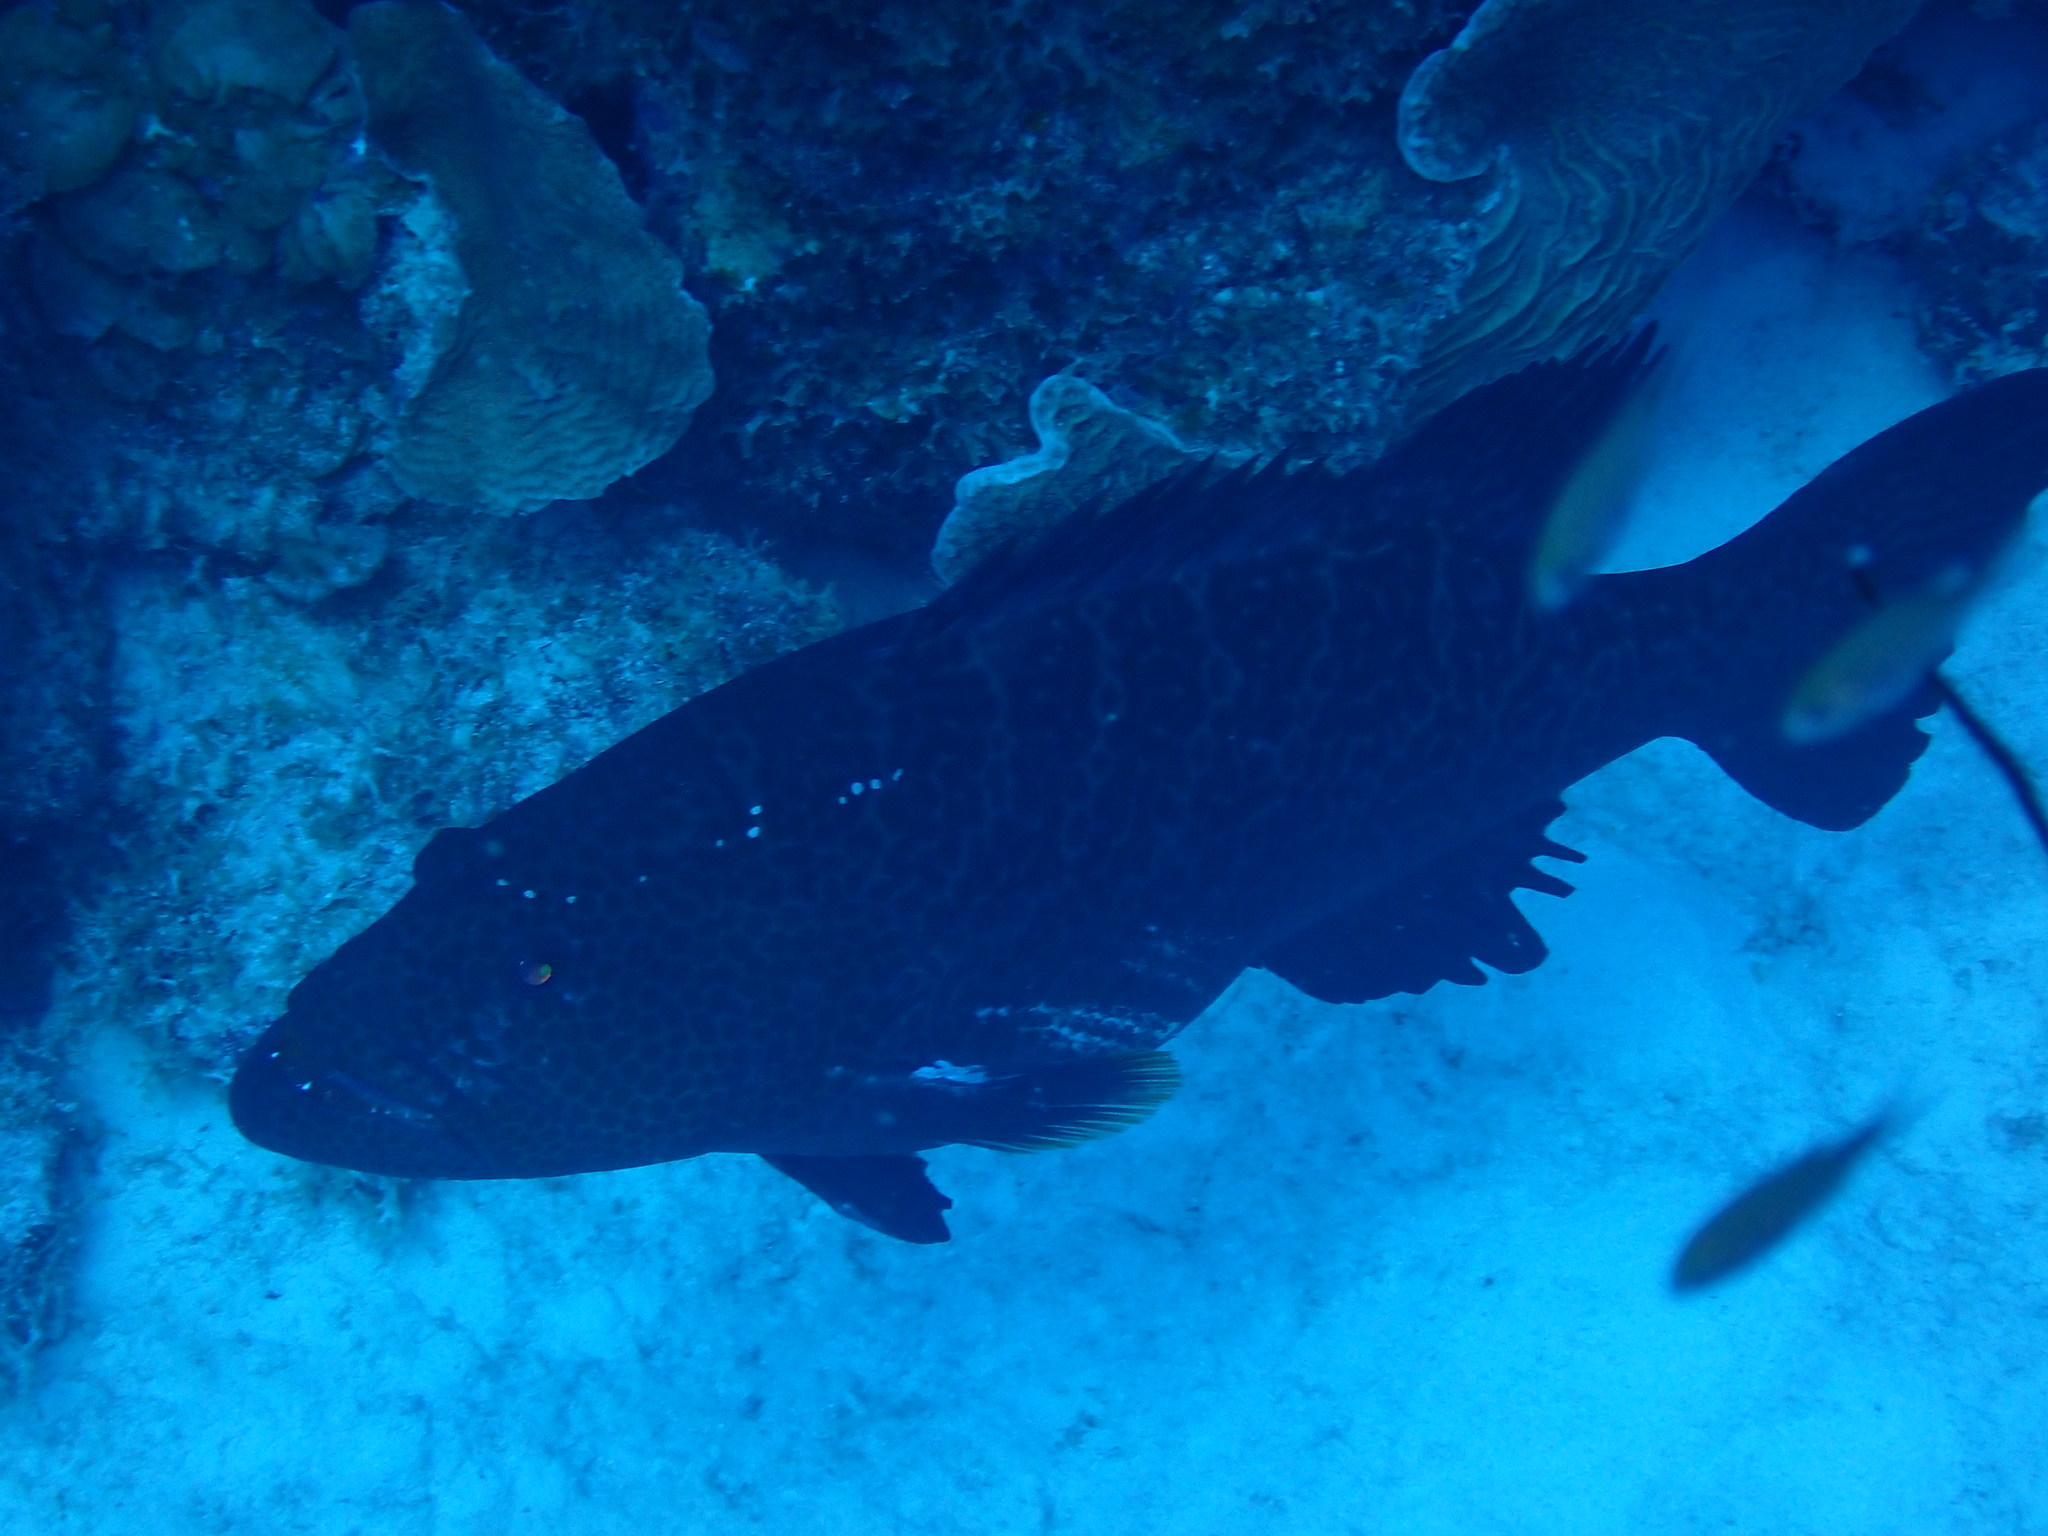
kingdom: Animalia
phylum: Chordata
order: Perciformes
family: Serranidae
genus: Mycteroperca
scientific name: Mycteroperca tigris
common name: Tiger grouper
